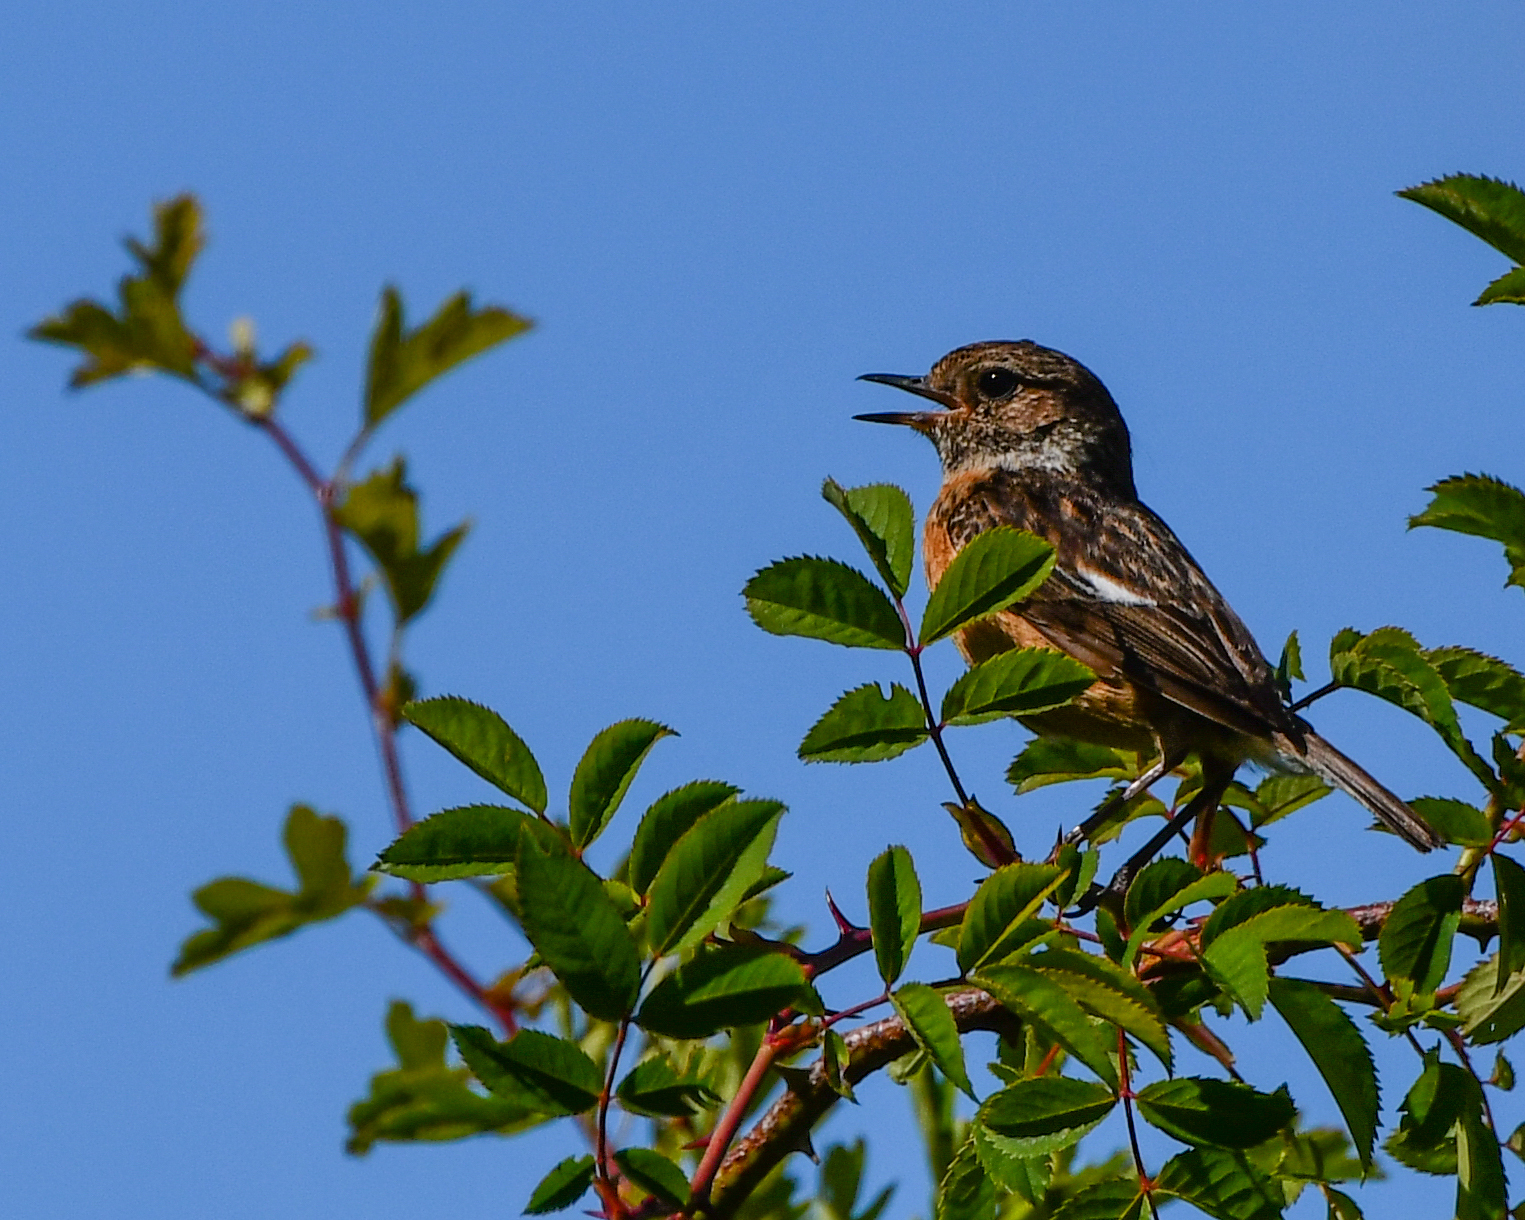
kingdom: Animalia
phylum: Chordata
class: Aves
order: Passeriformes
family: Muscicapidae
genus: Saxicola
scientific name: Saxicola rubicola
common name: European stonechat
